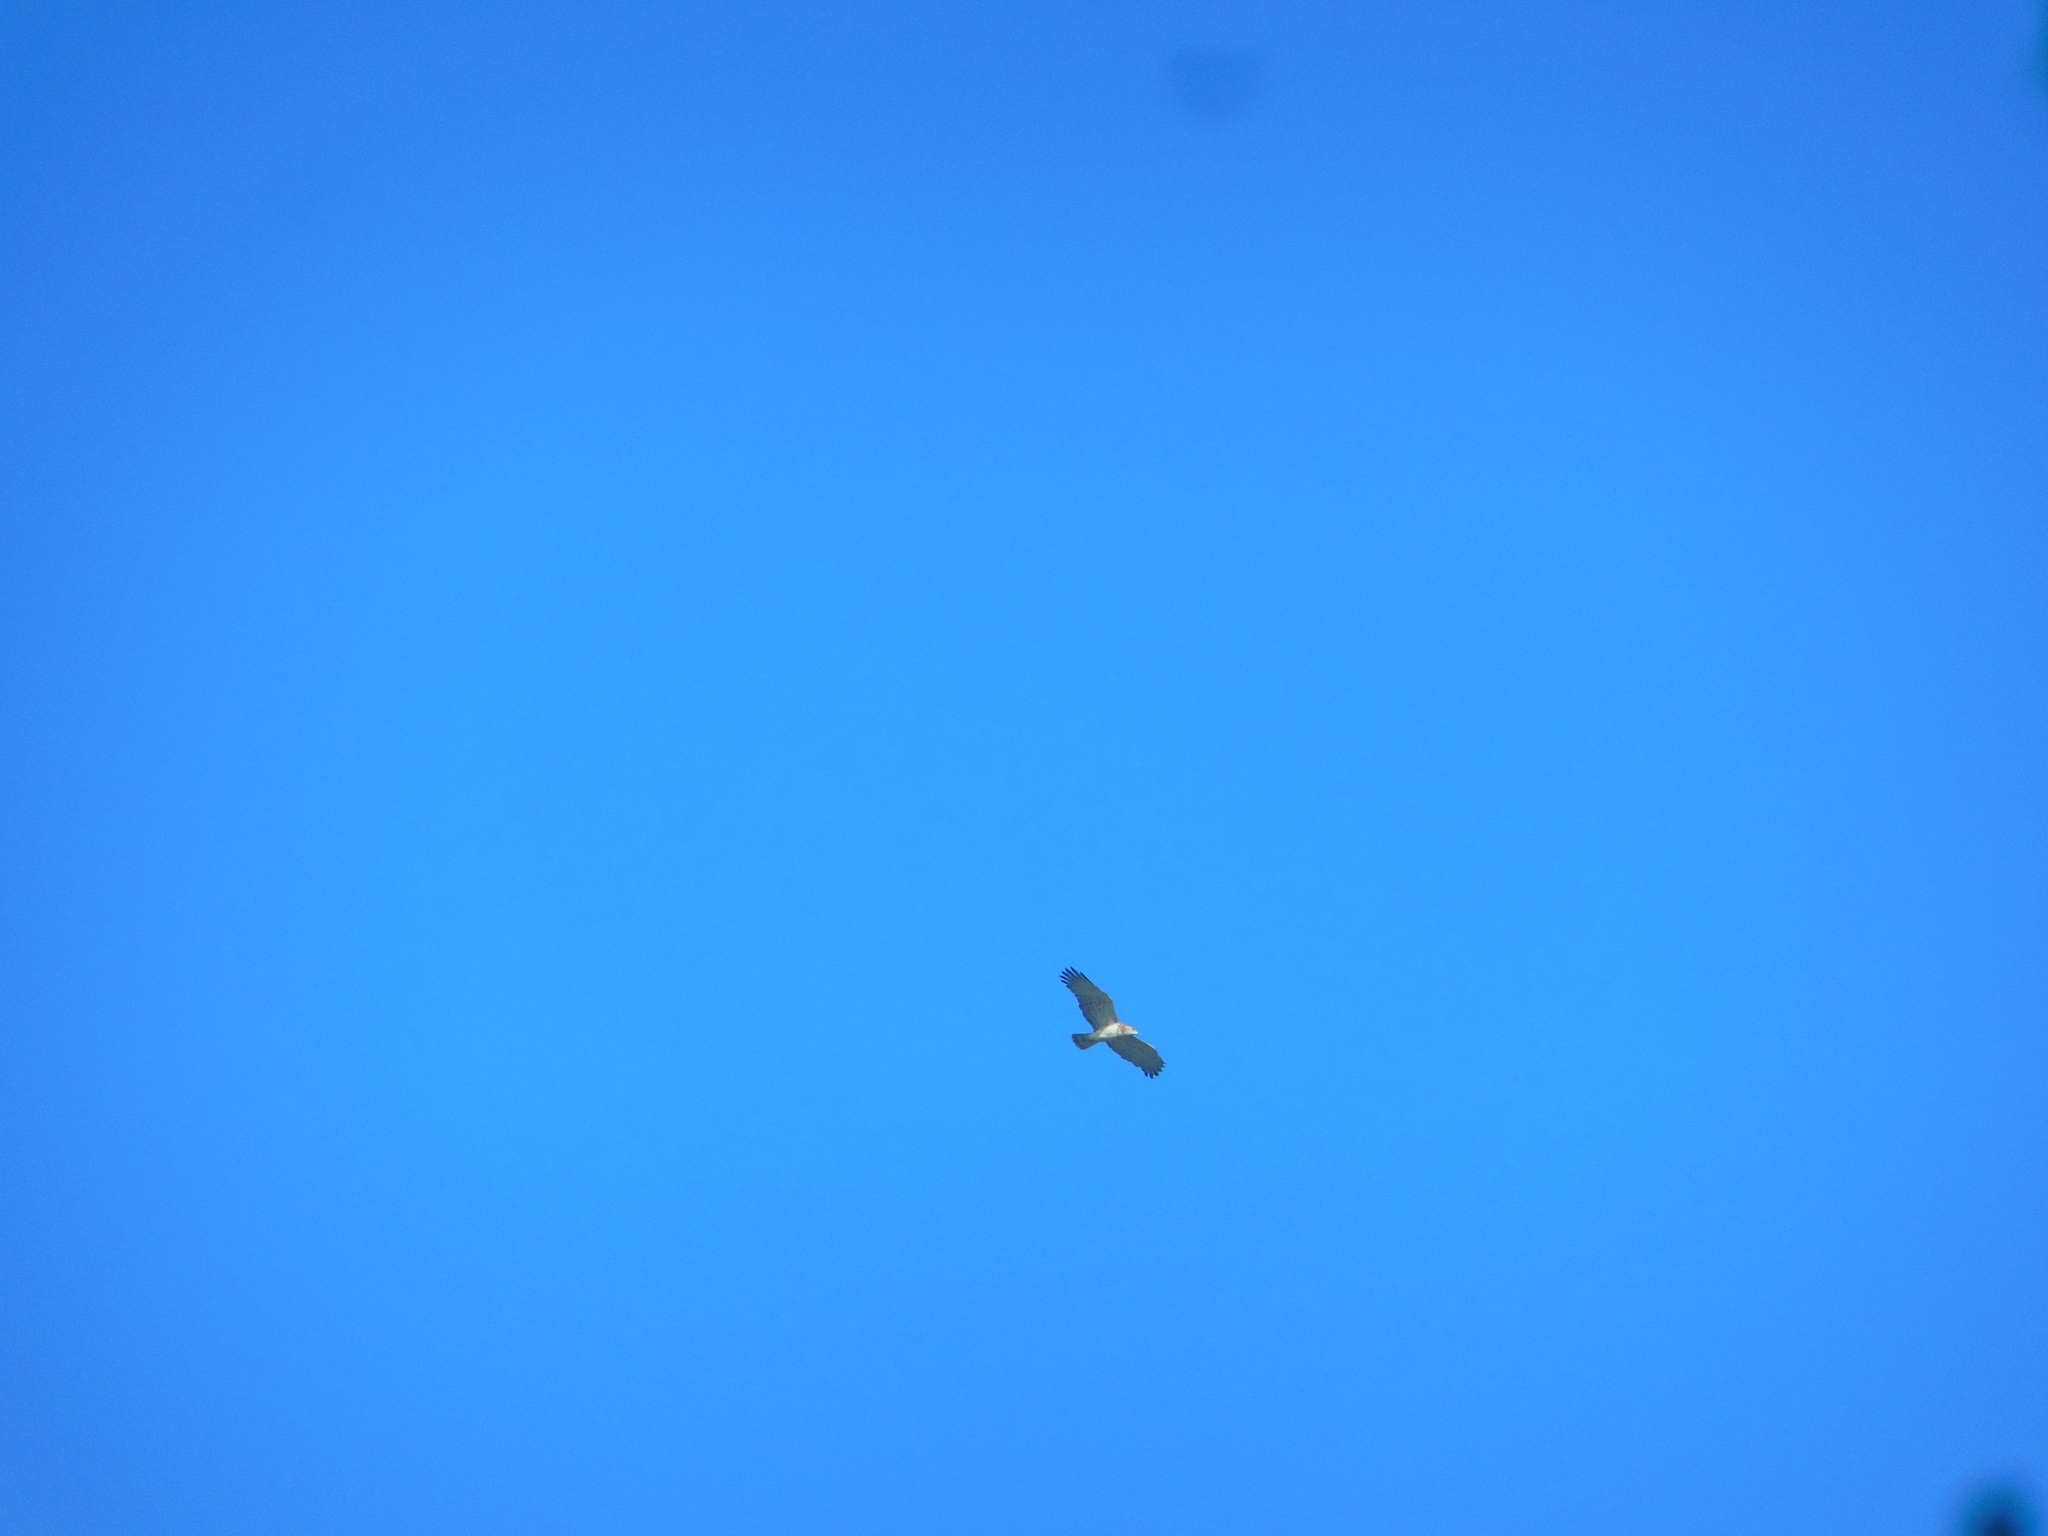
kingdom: Animalia
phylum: Chordata
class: Aves
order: Accipitriformes
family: Accipitridae
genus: Circaetus
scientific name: Circaetus gallicus
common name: Short-toed snake eagle
